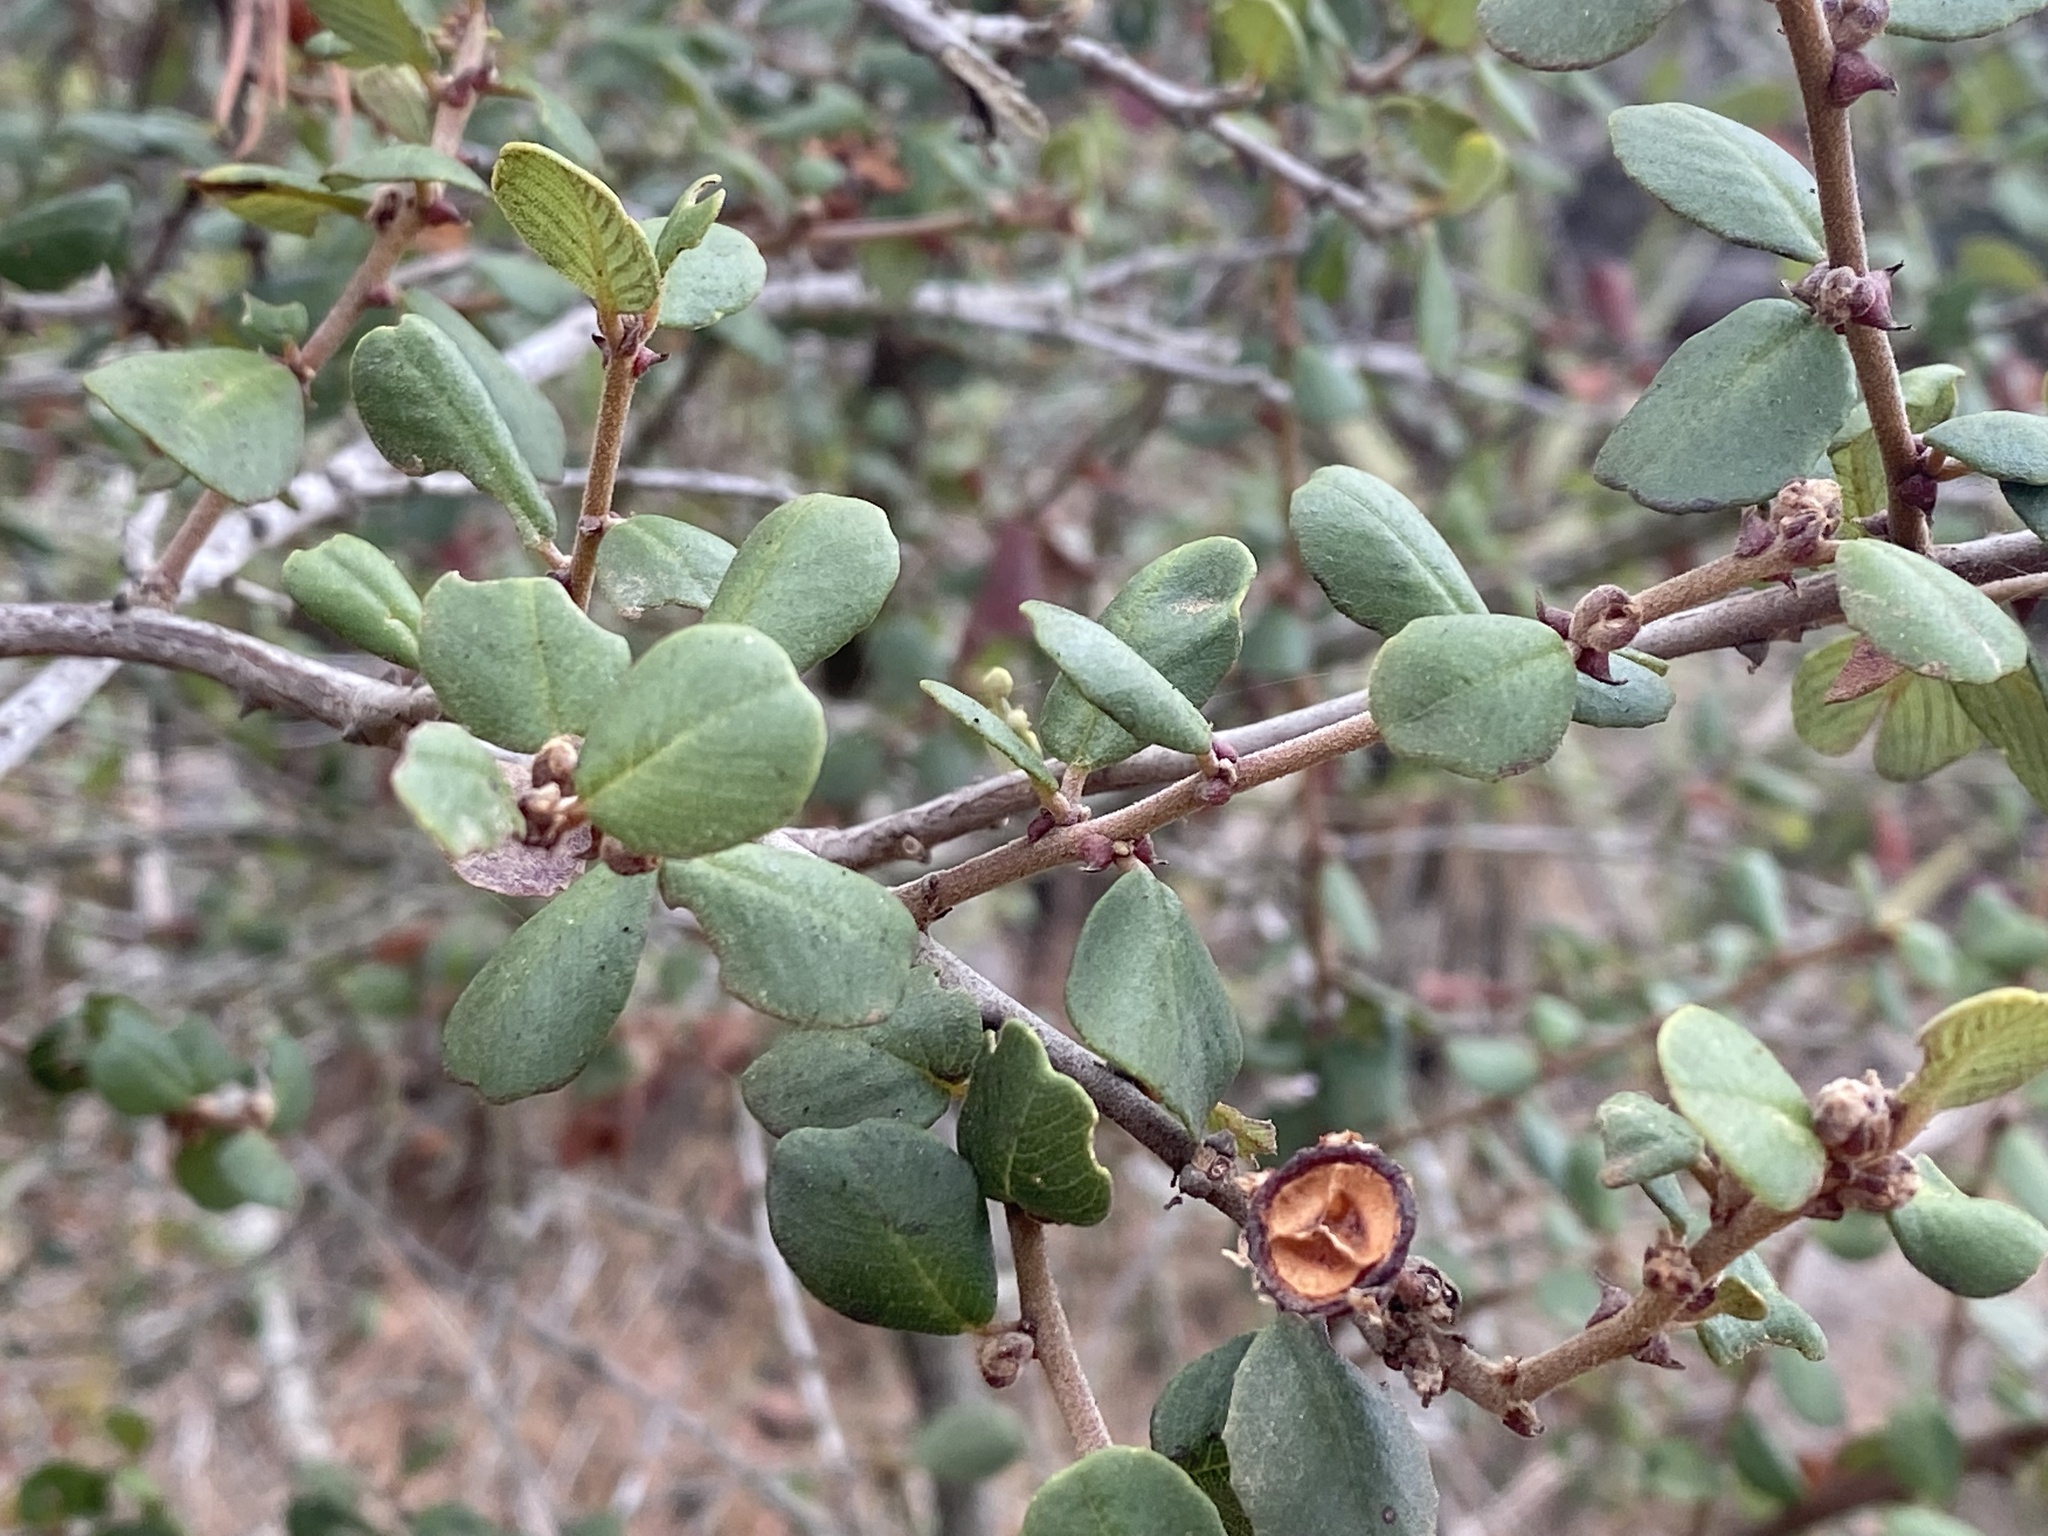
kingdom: Plantae
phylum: Tracheophyta
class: Magnoliopsida
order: Rosales
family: Rhamnaceae
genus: Ceanothus
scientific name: Ceanothus verrucosus
